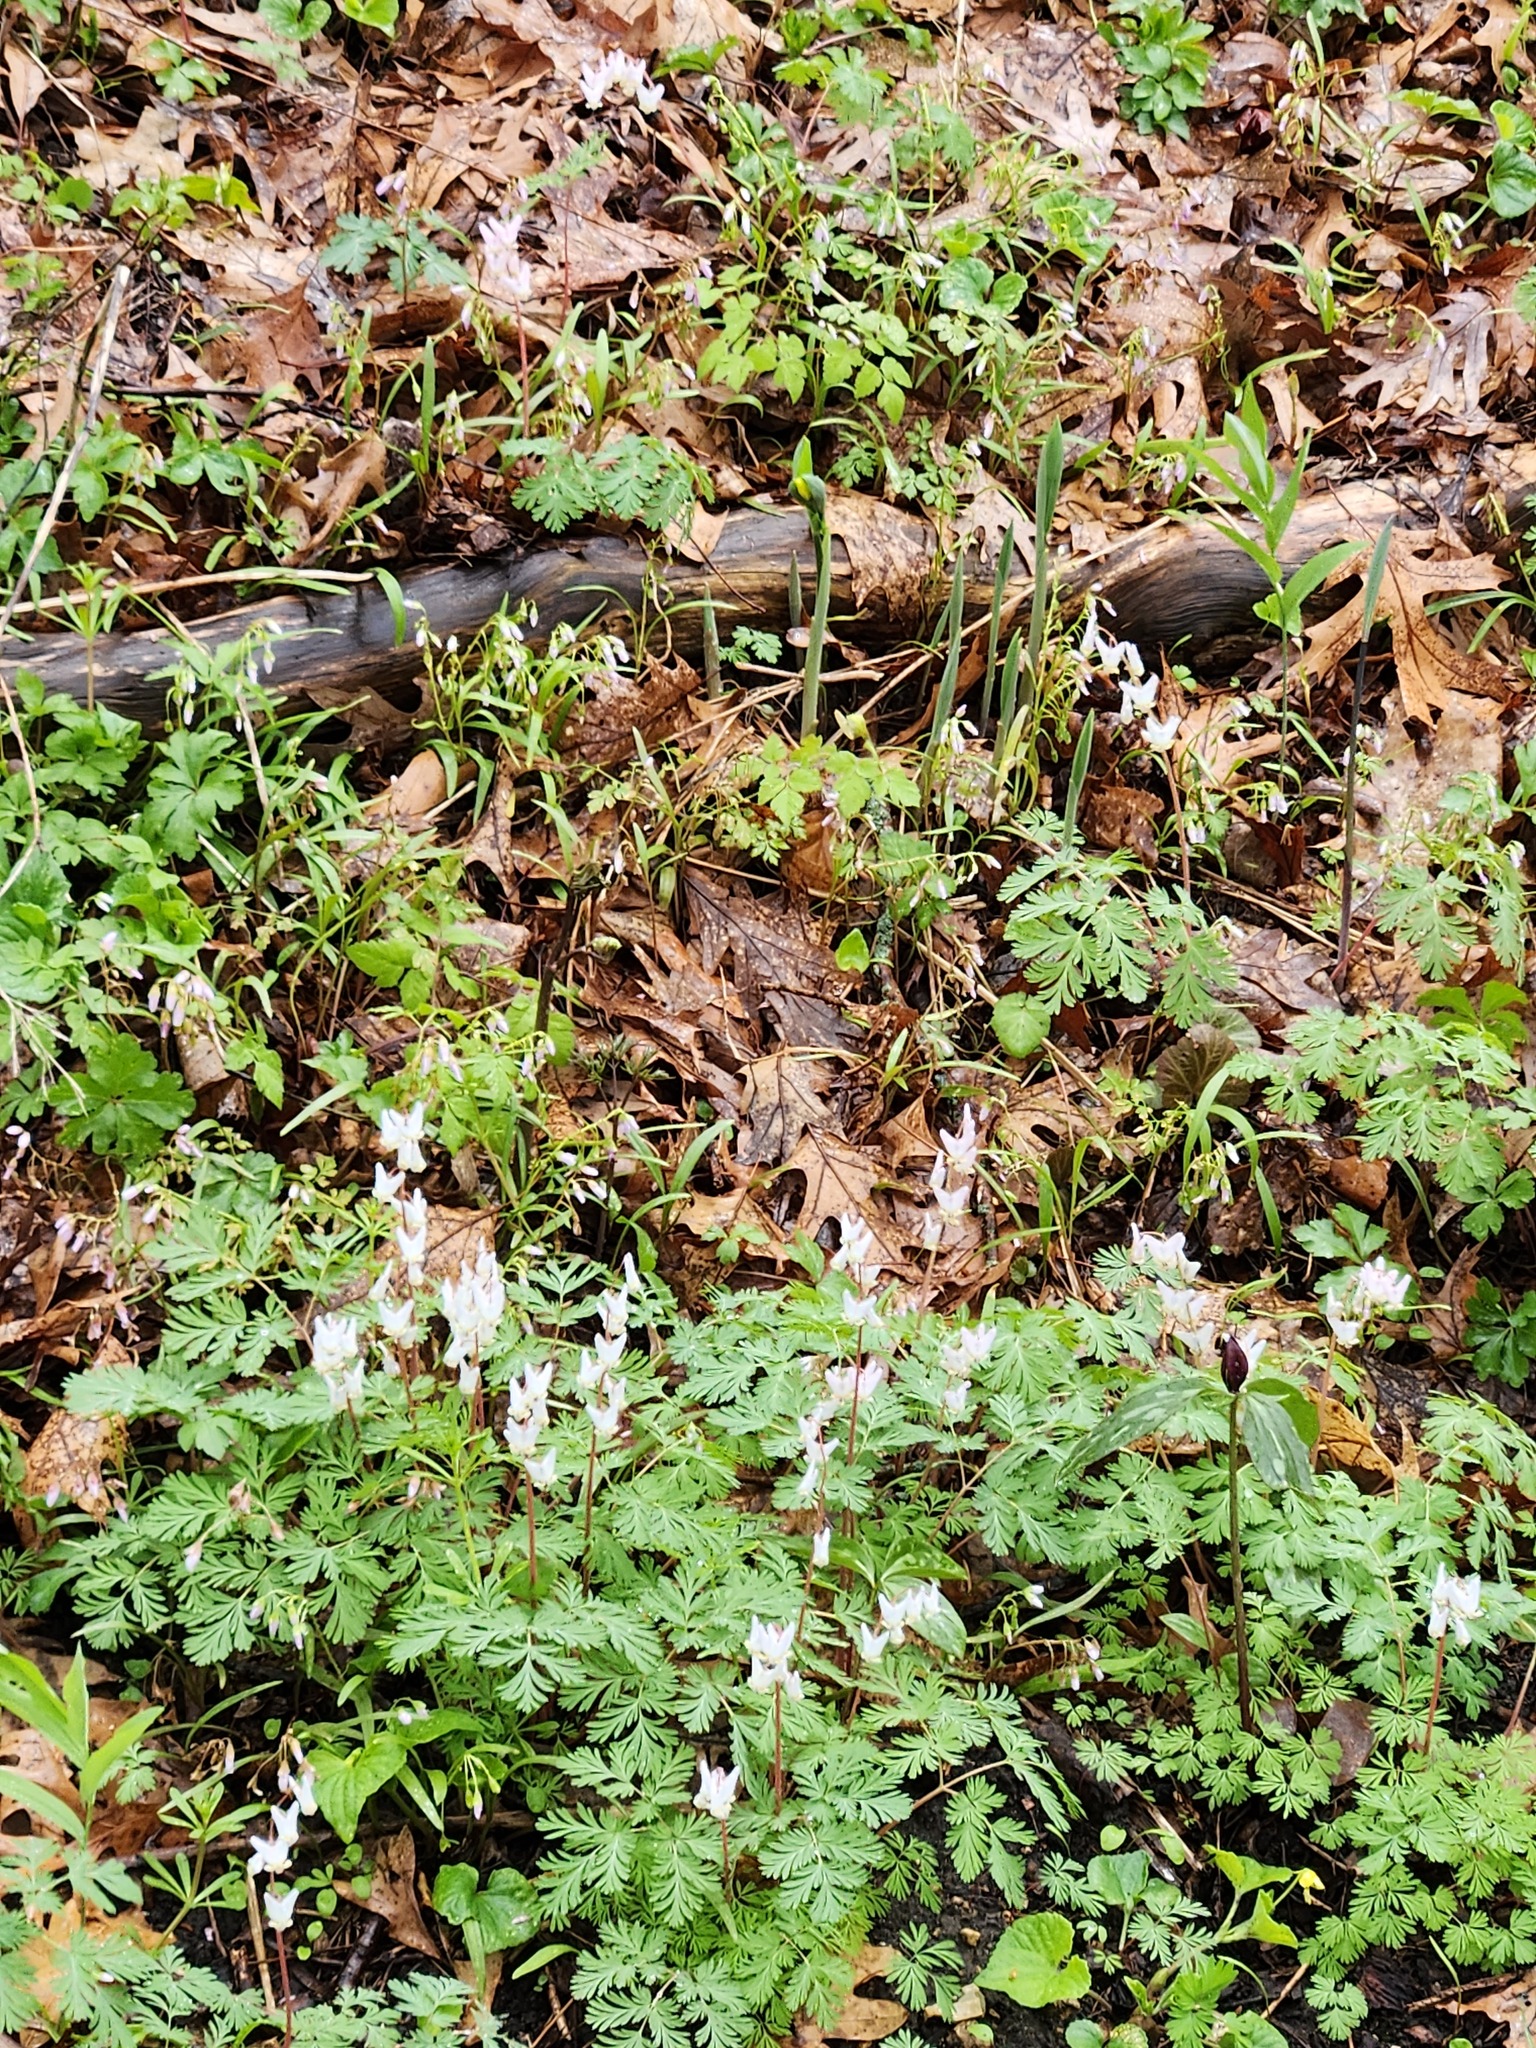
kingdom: Plantae
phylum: Tracheophyta
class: Magnoliopsida
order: Ranunculales
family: Papaveraceae
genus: Dicentra
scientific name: Dicentra cucullaria
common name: Dutchman's breeches
